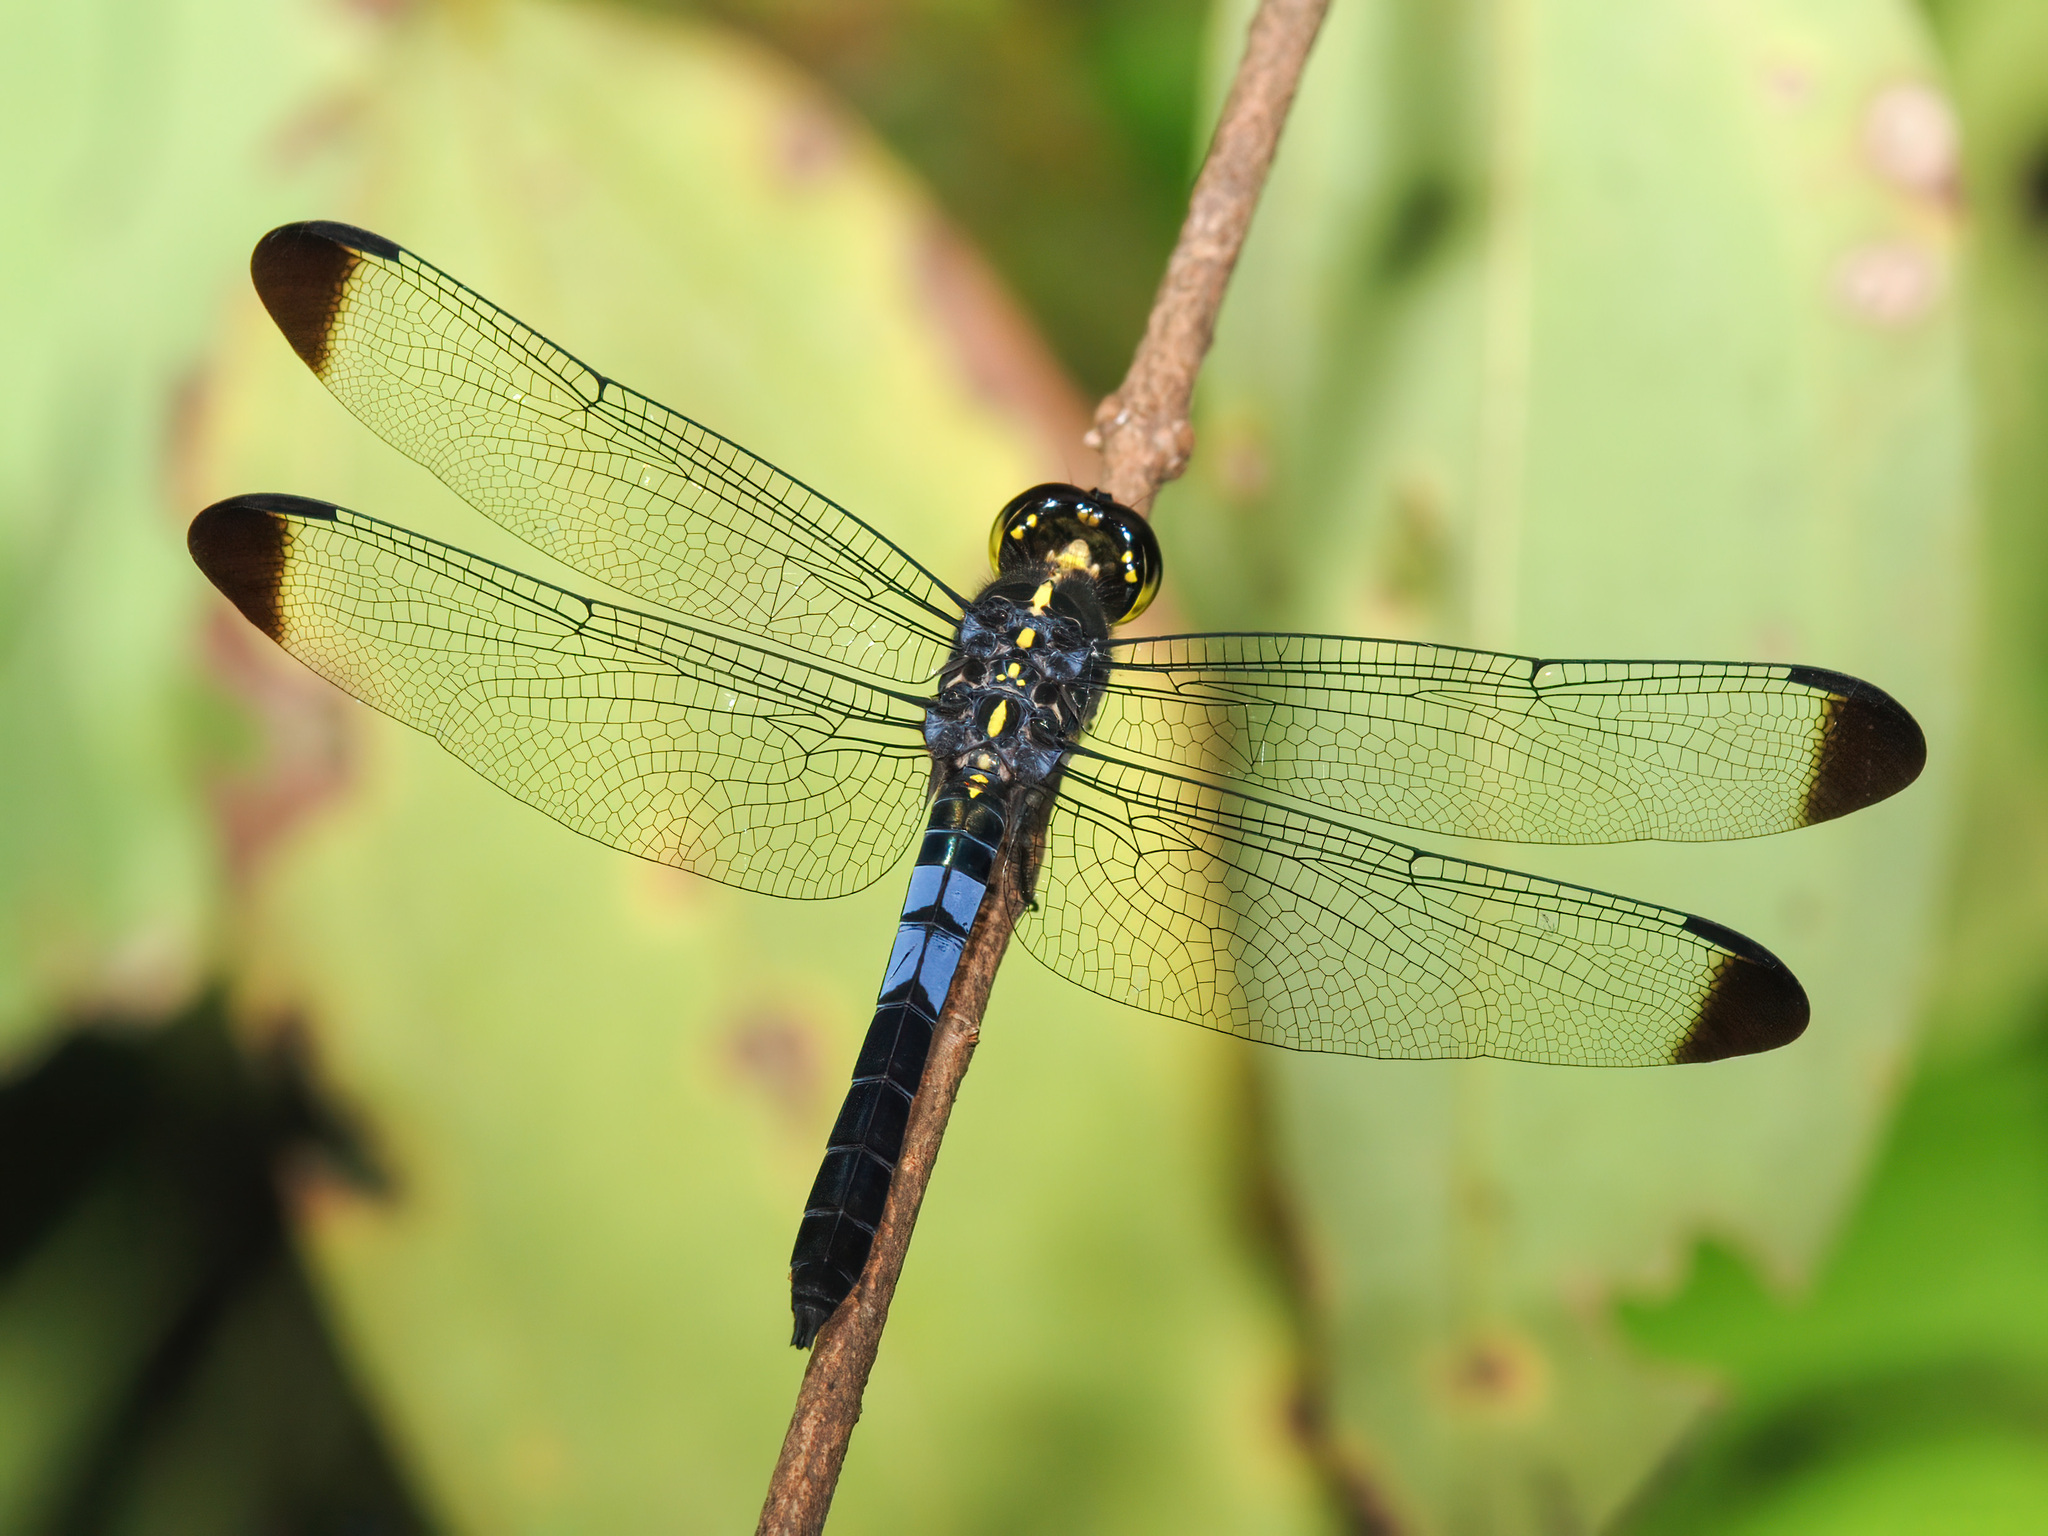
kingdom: Animalia
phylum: Arthropoda
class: Insecta
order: Odonata
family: Libellulidae
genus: Cratilla
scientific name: Cratilla metallica
